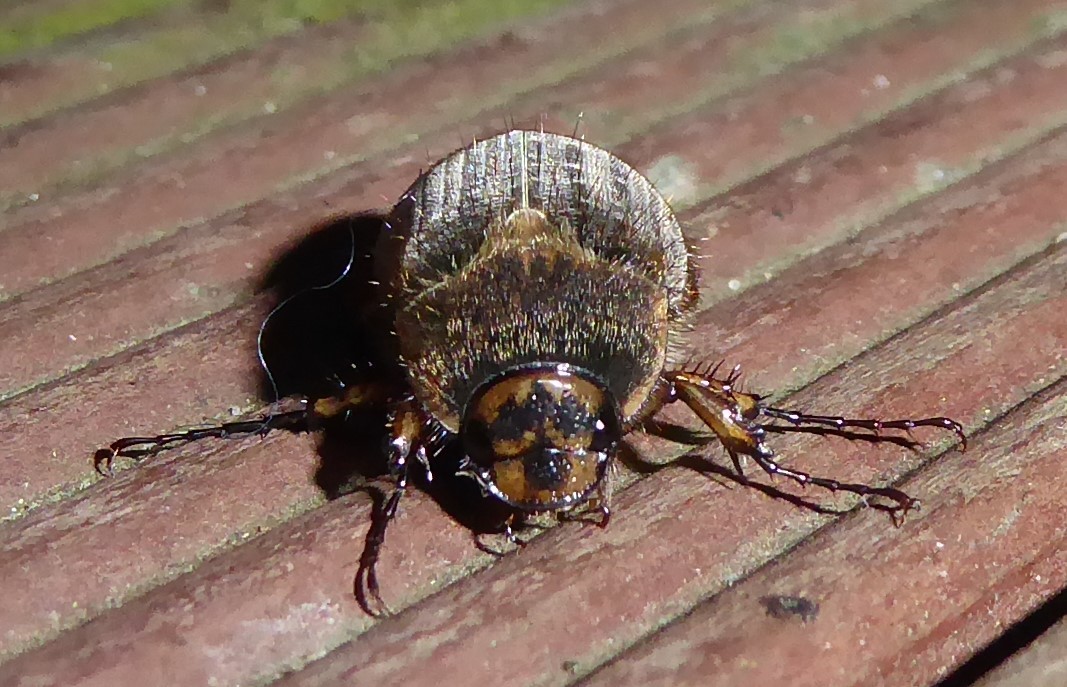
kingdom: Animalia
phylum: Arthropoda
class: Insecta
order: Coleoptera
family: Scarabaeidae
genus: Odontria
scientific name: Odontria striata
